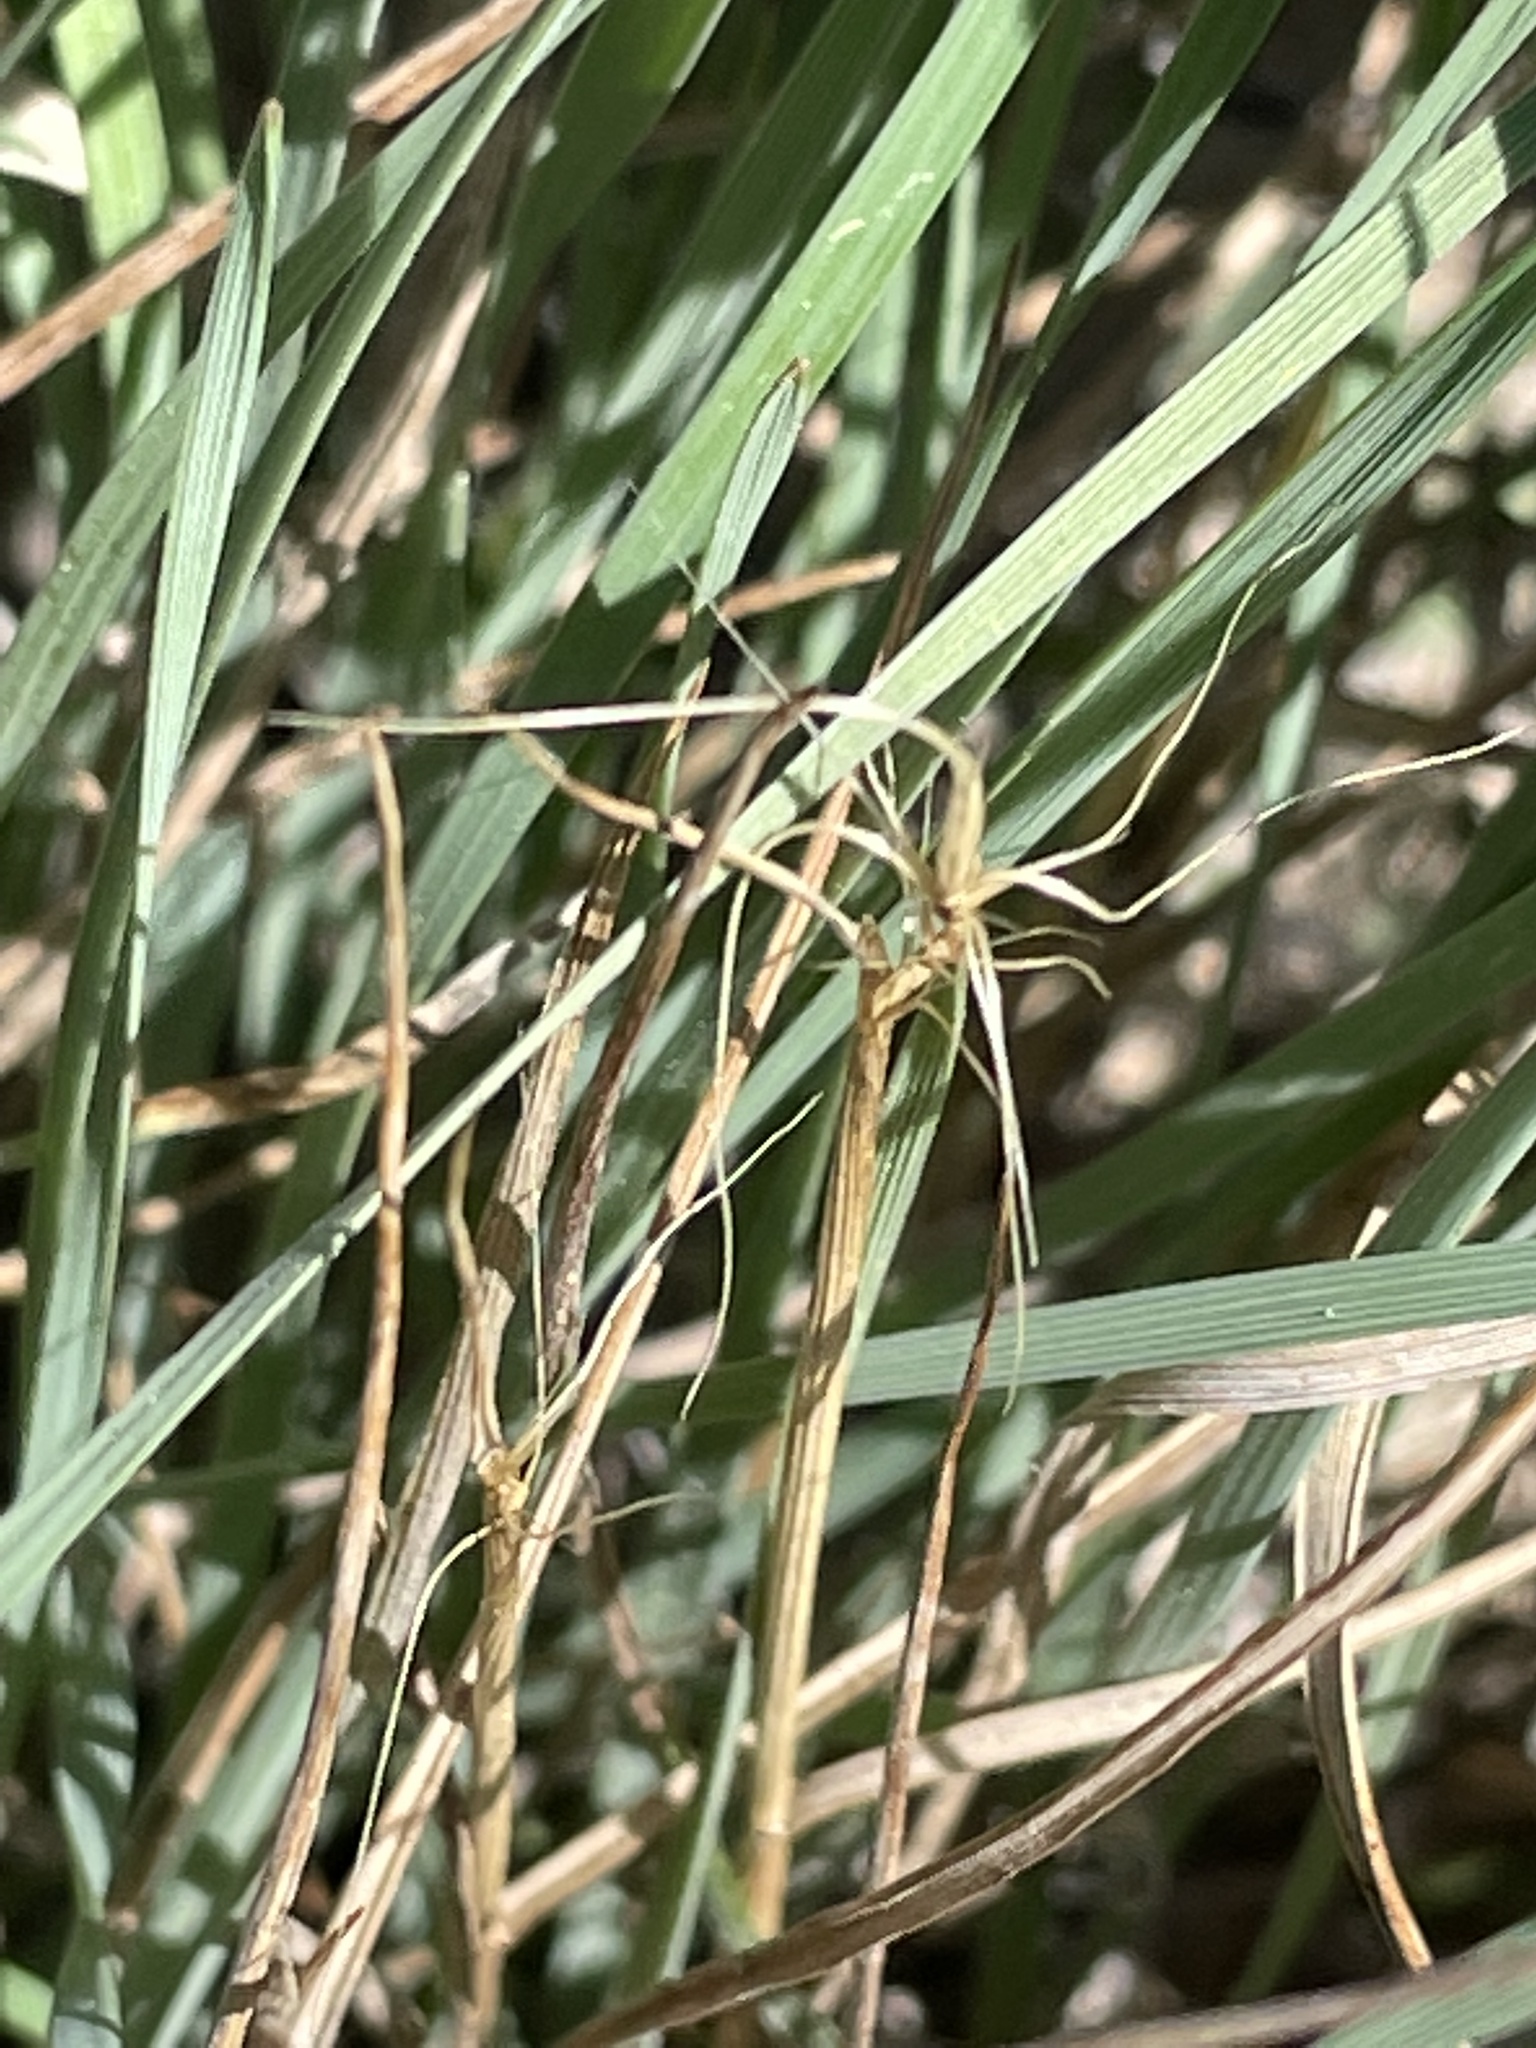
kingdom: Plantae
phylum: Tracheophyta
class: Liliopsida
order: Poales
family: Poaceae
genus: Elymus
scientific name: Elymus elymoides
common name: Bottlebrush squirreltail
